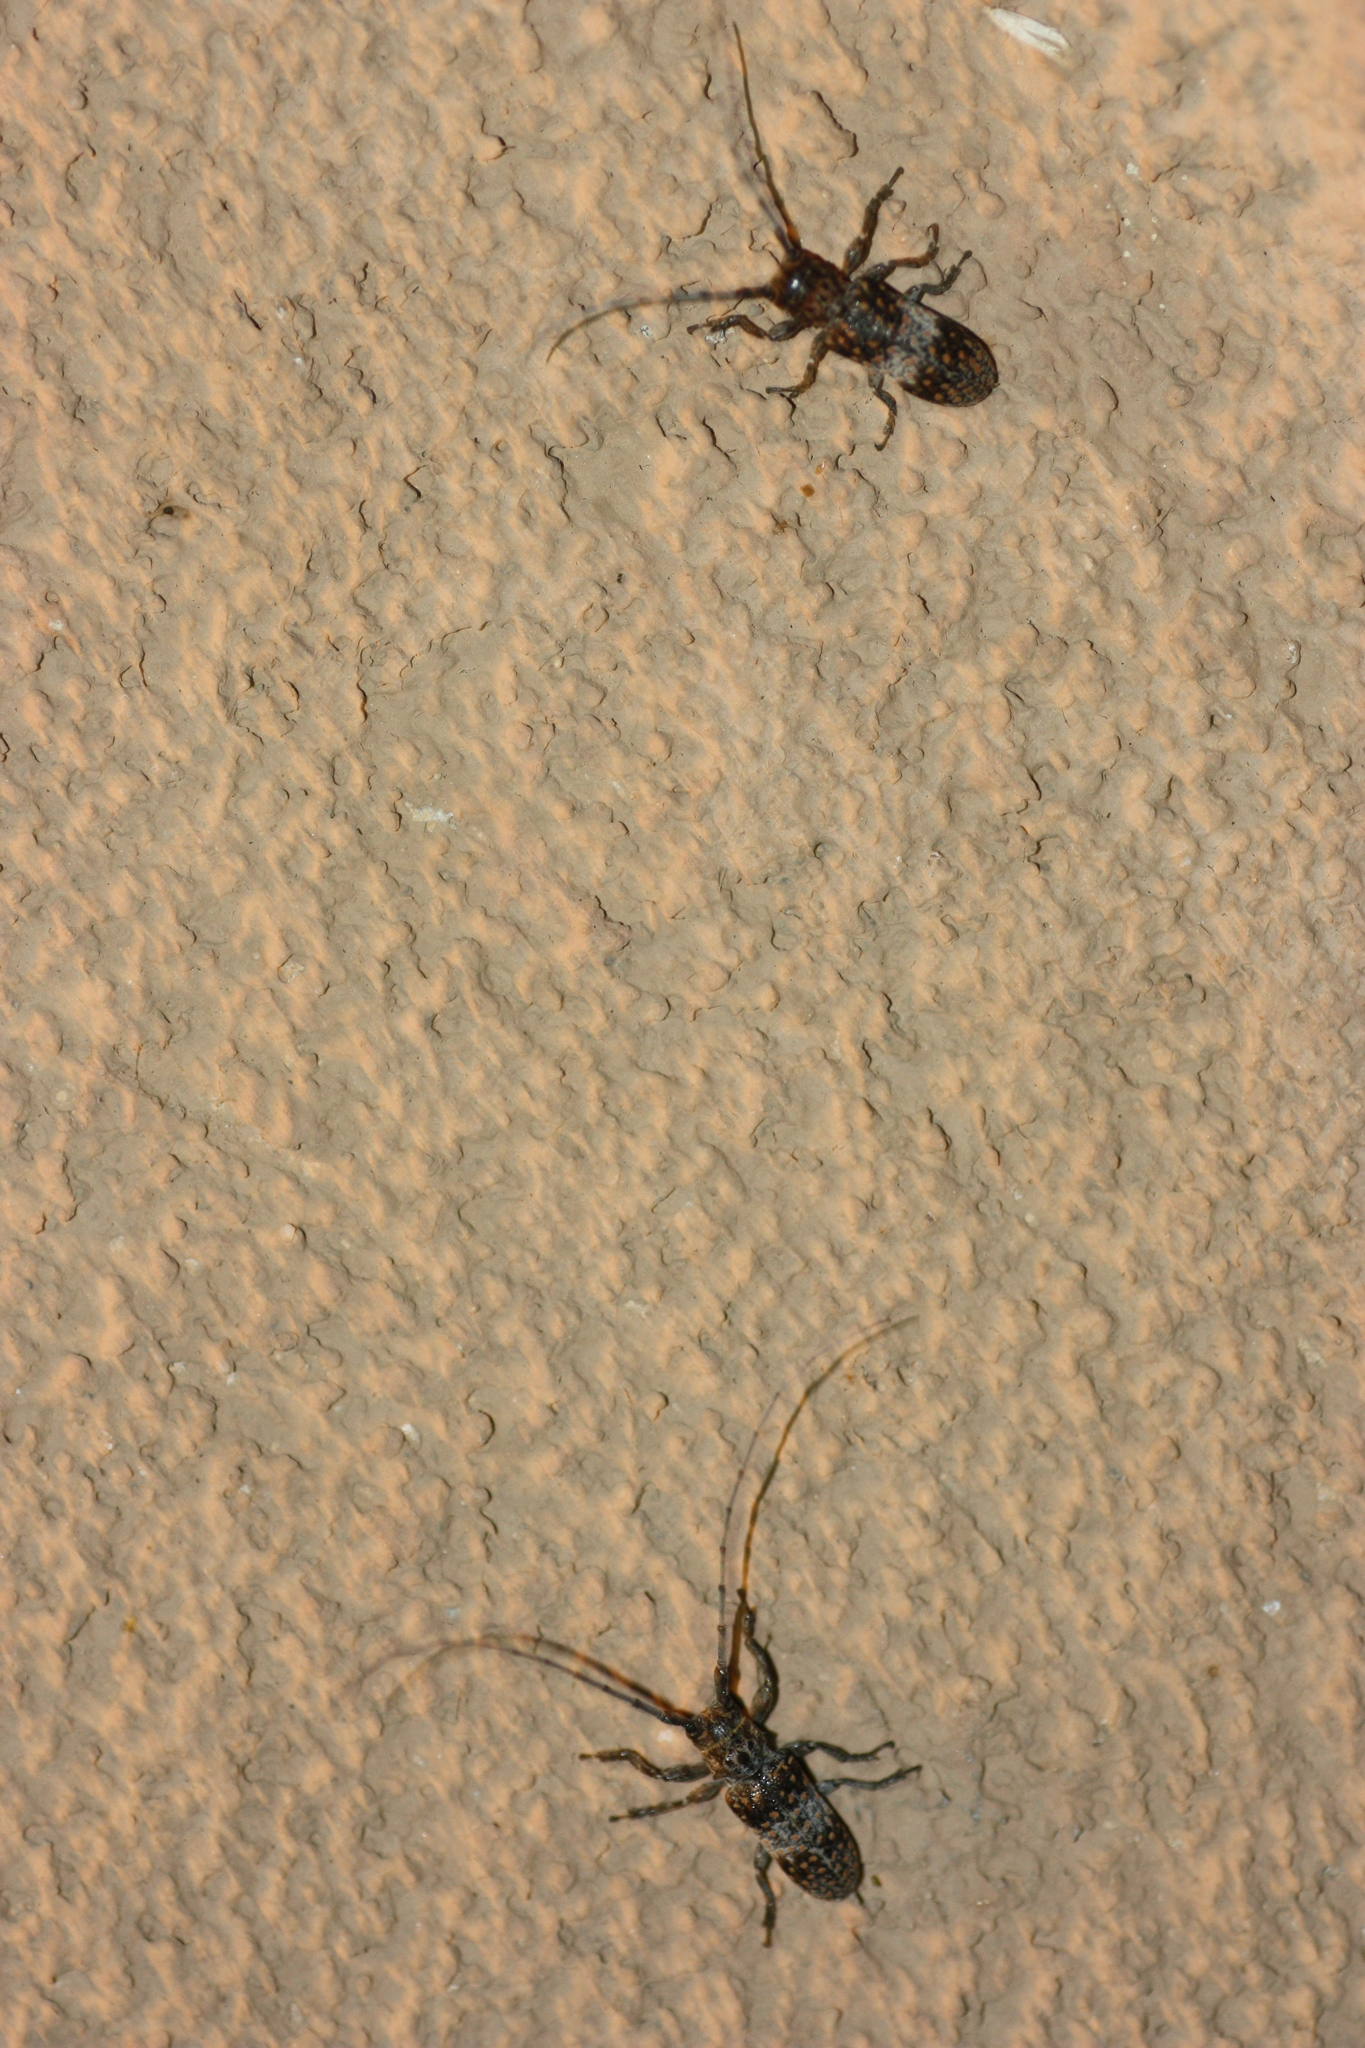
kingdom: Animalia
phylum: Arthropoda
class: Insecta
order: Coleoptera
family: Cerambycidae
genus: Oncideres
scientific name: Oncideres rhodosticta
